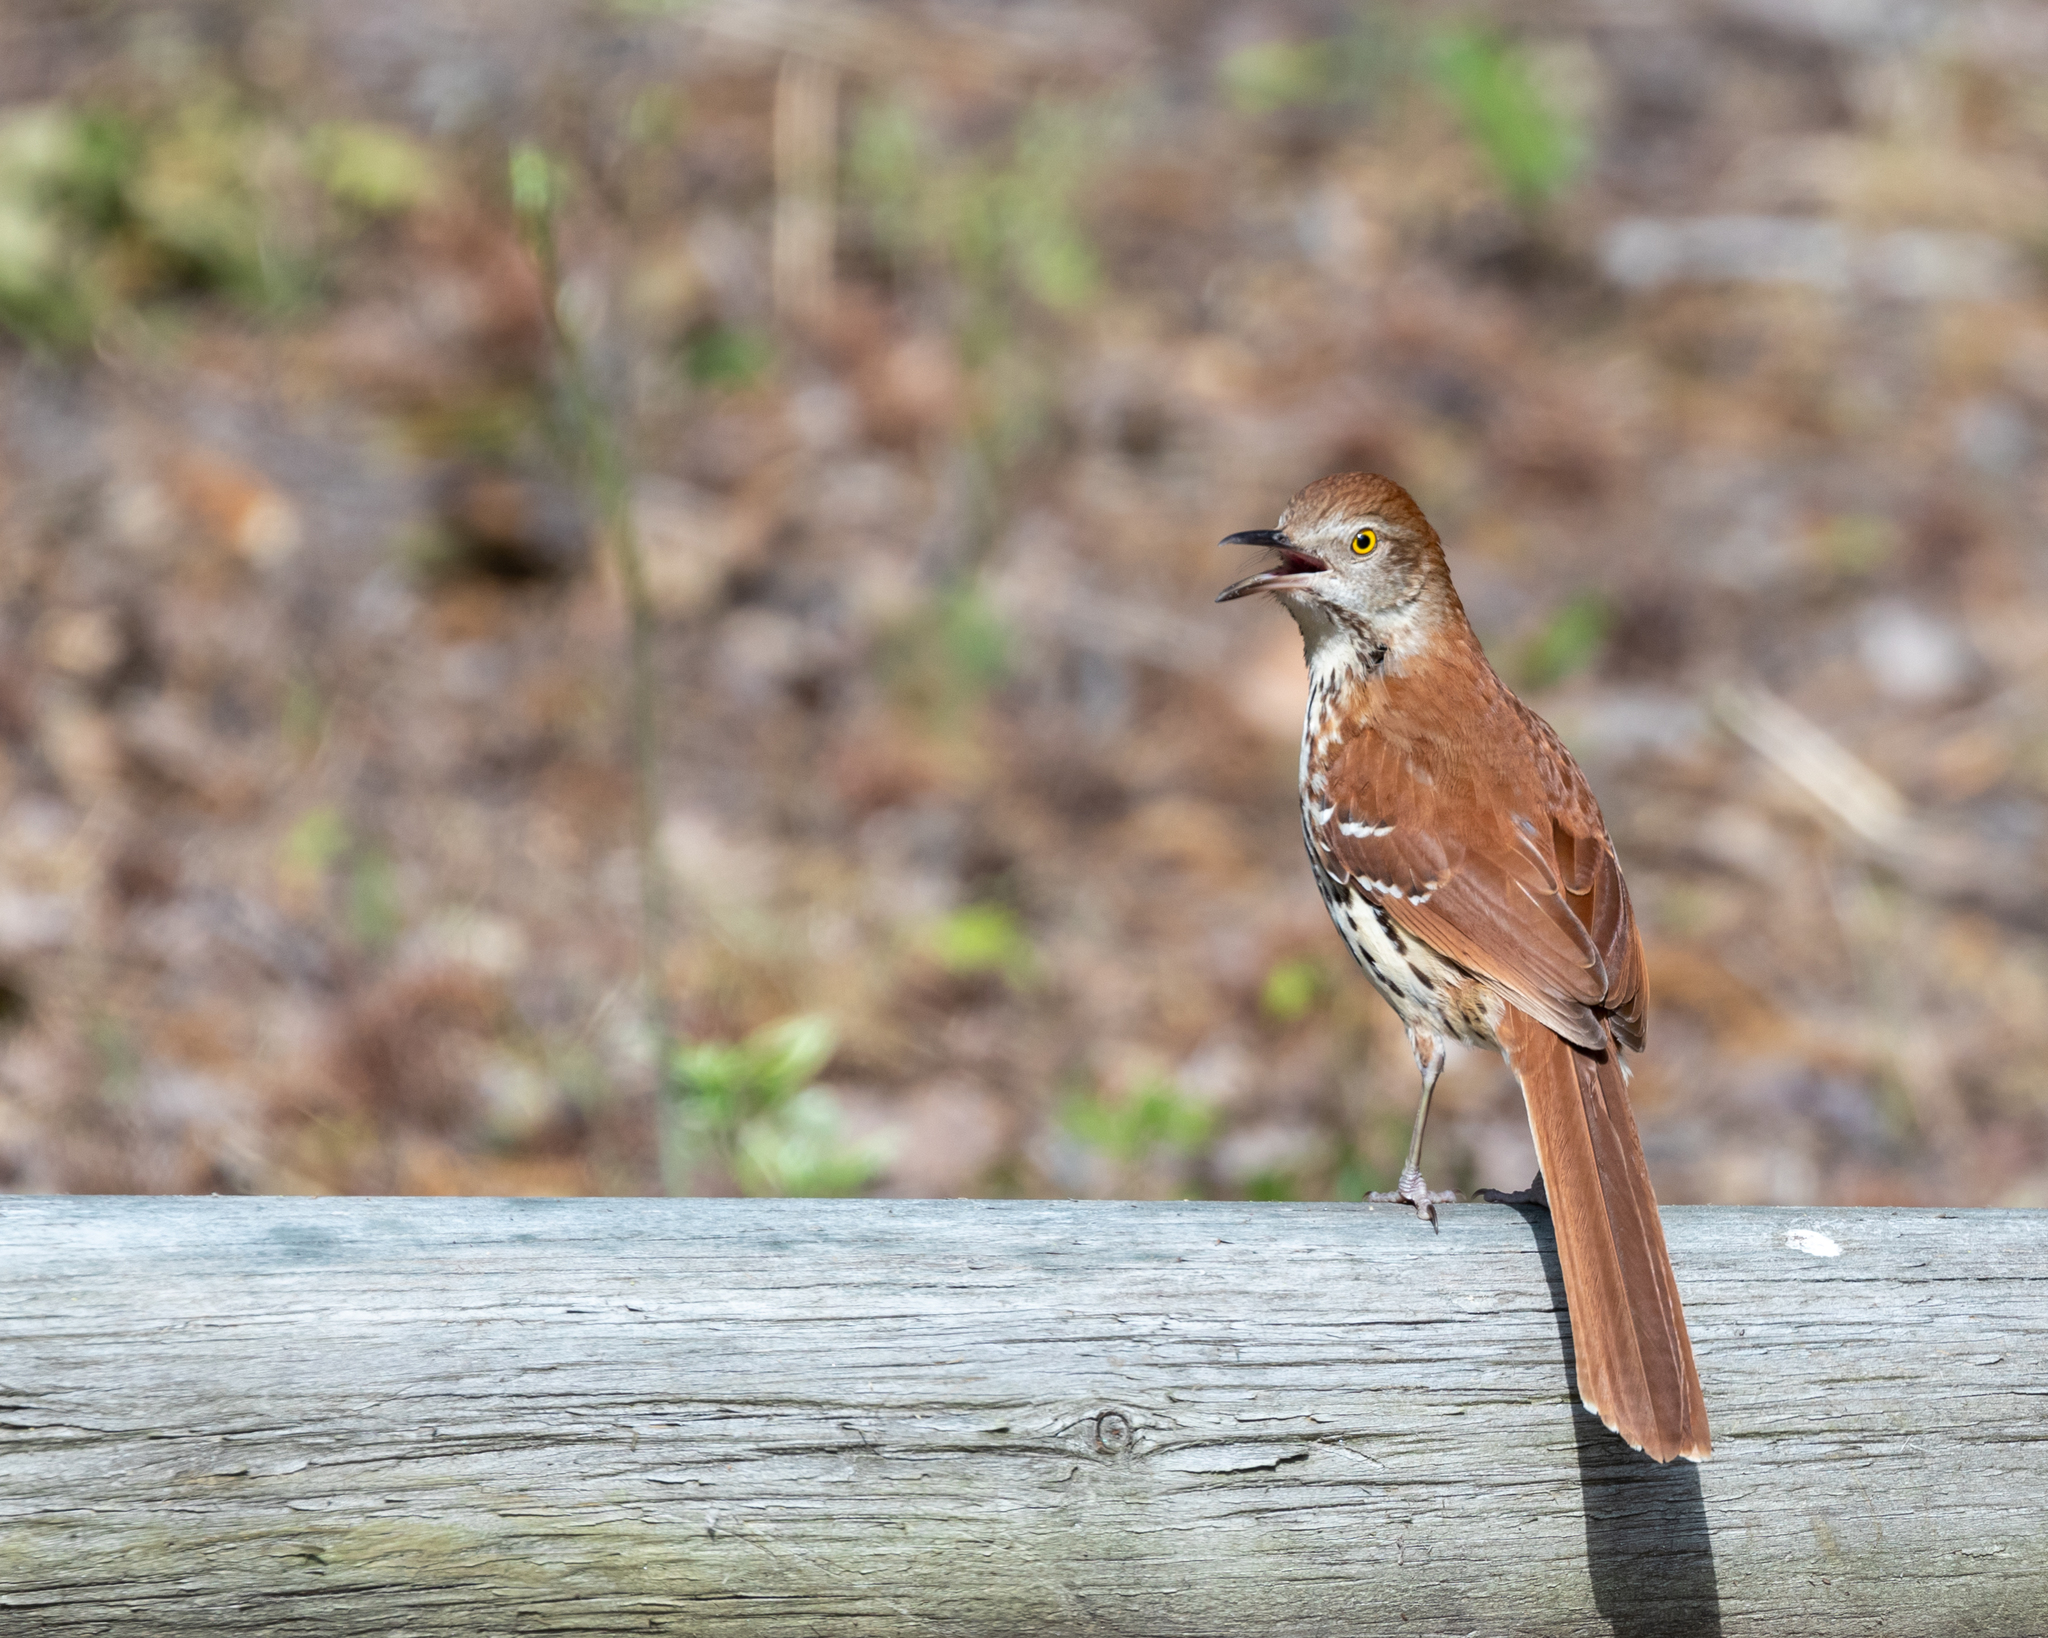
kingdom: Animalia
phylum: Chordata
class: Aves
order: Passeriformes
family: Mimidae
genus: Toxostoma
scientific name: Toxostoma rufum
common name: Brown thrasher
